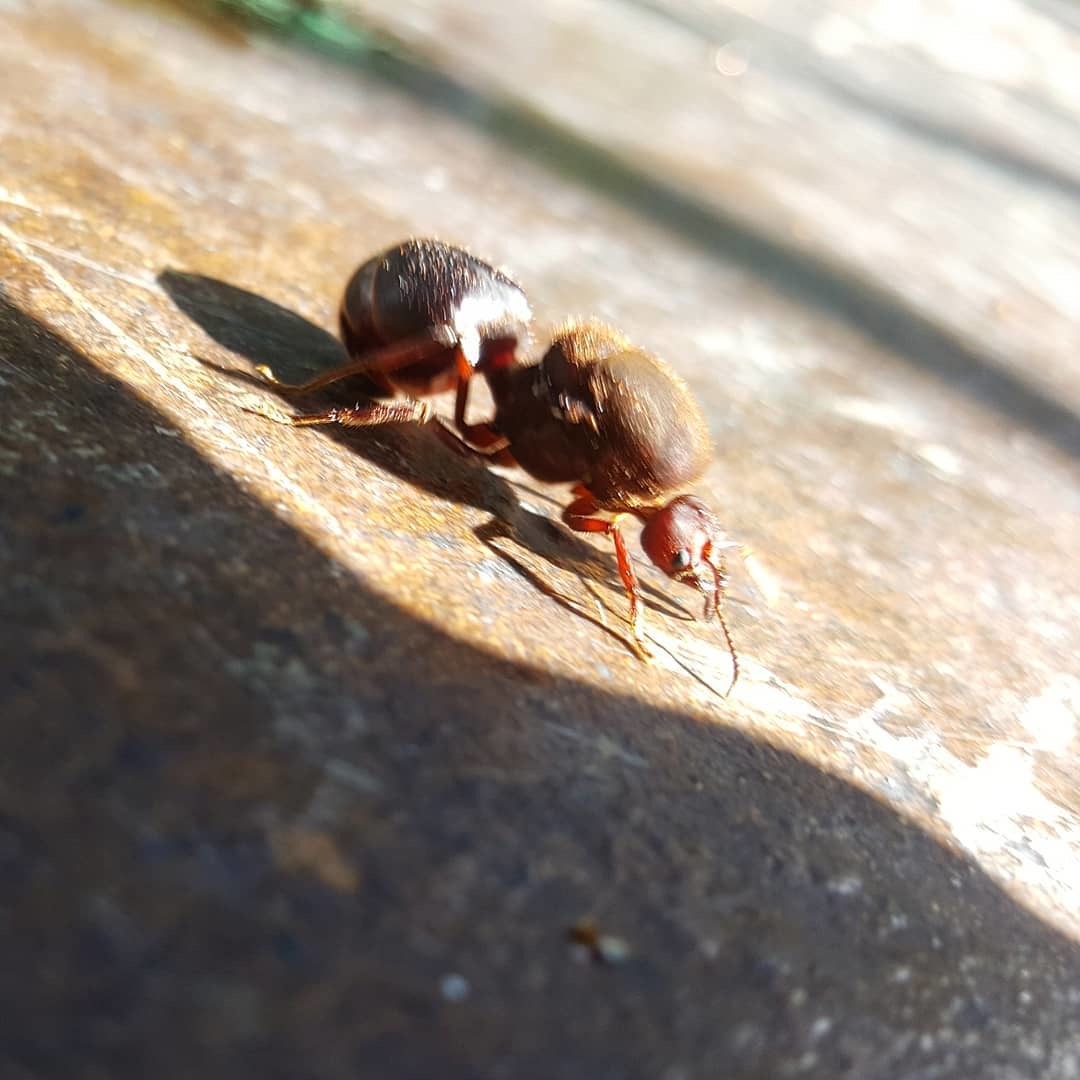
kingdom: Animalia
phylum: Arthropoda
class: Insecta
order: Hymenoptera
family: Formicidae
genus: Atta
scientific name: Atta mexicana
